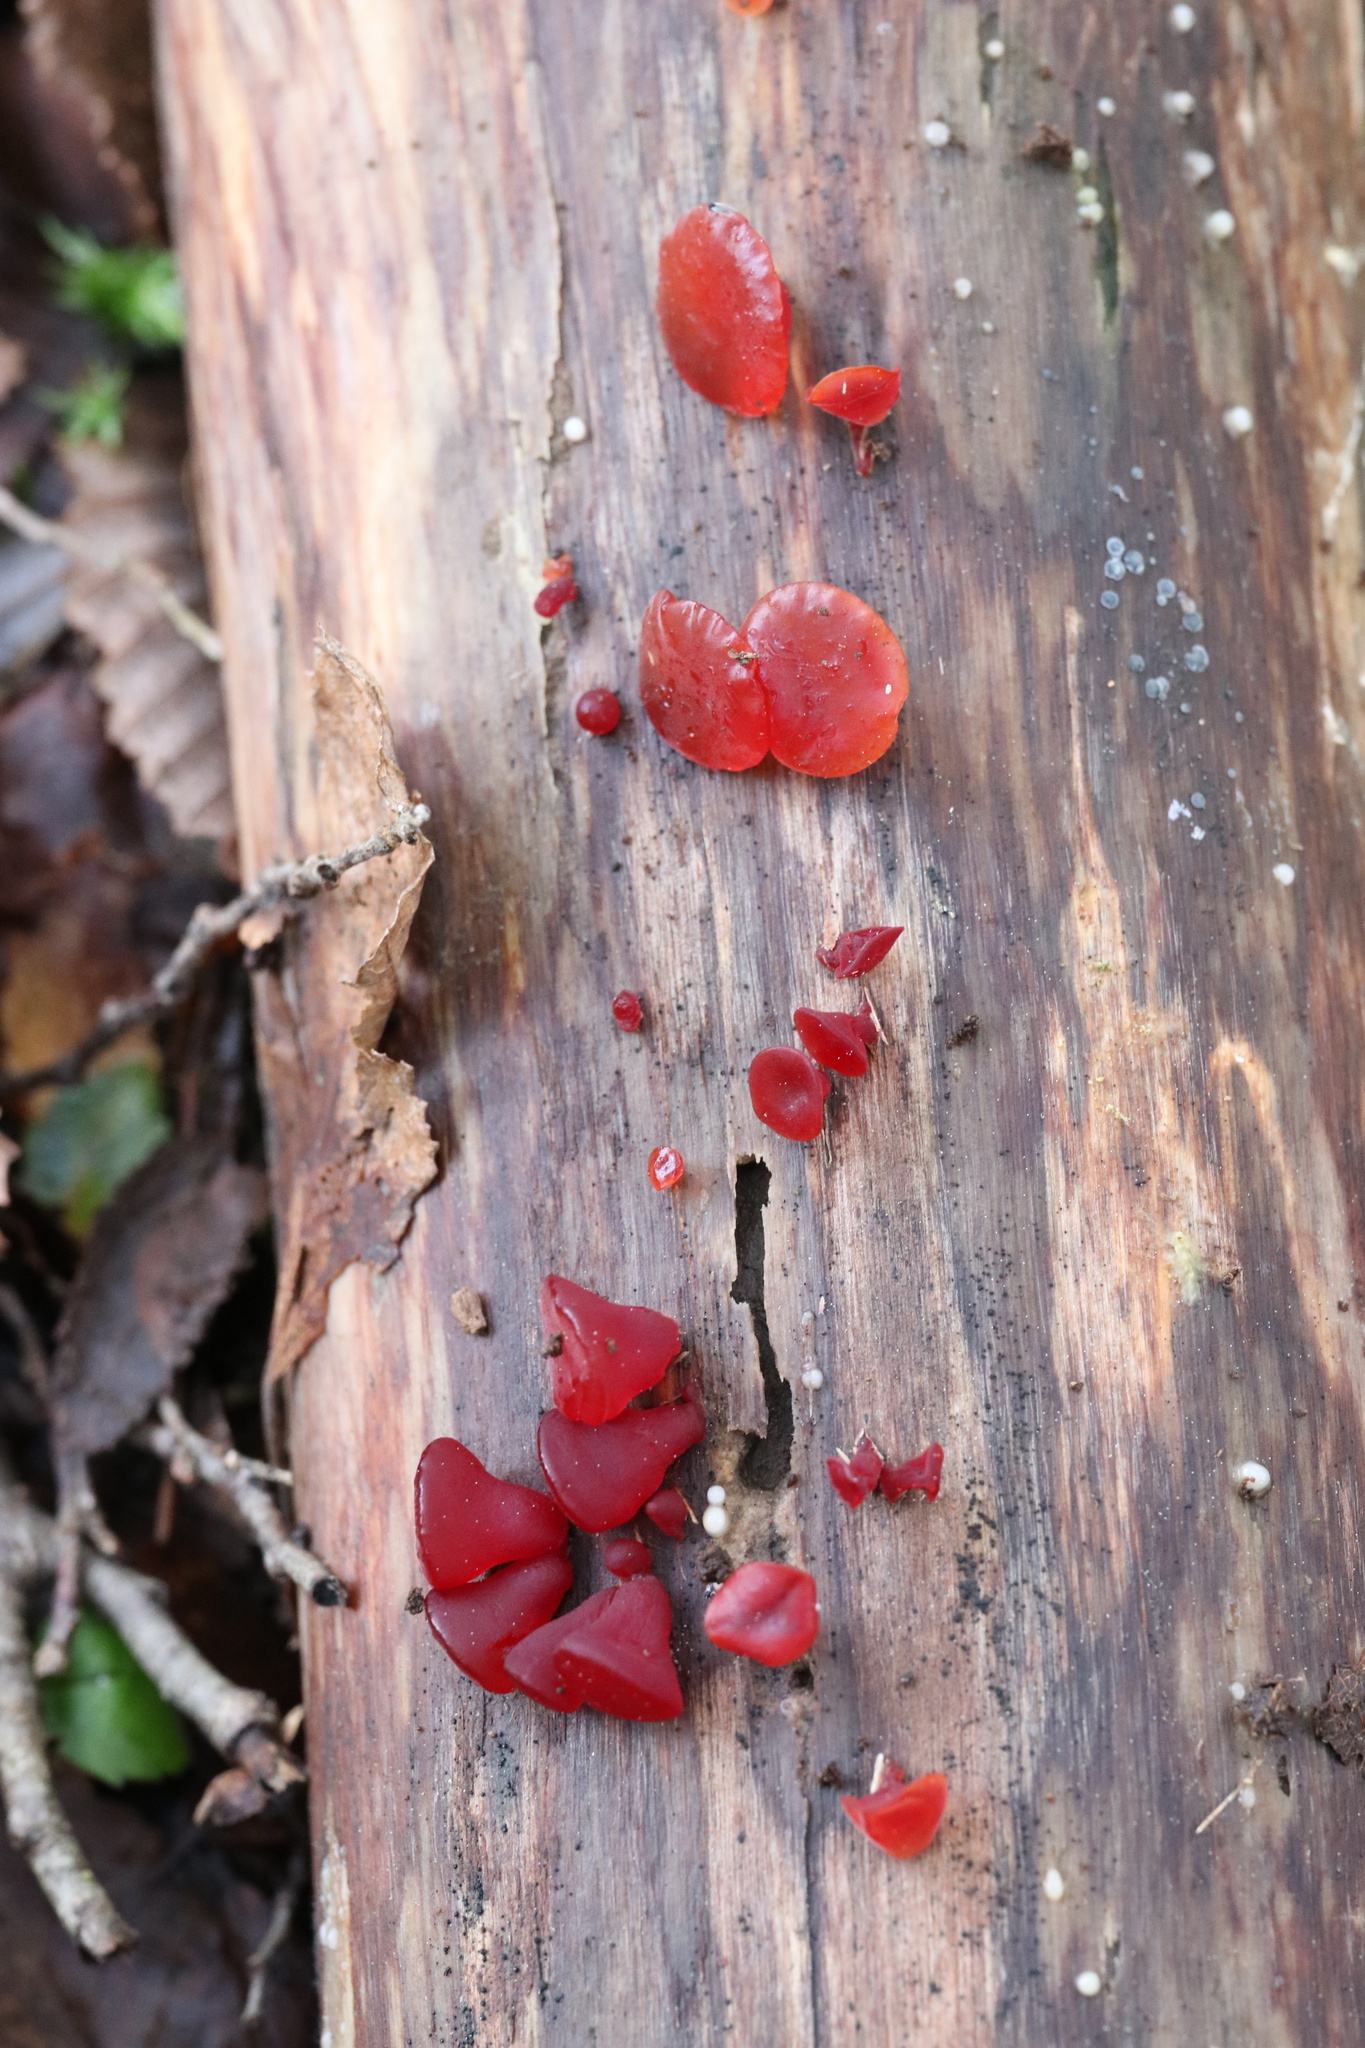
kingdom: Fungi
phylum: Basidiomycota
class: Dacrymycetes
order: Dacrymycetales
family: Dacrymycetaceae
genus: Guepiniopsis
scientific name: Guepiniopsis alpina
